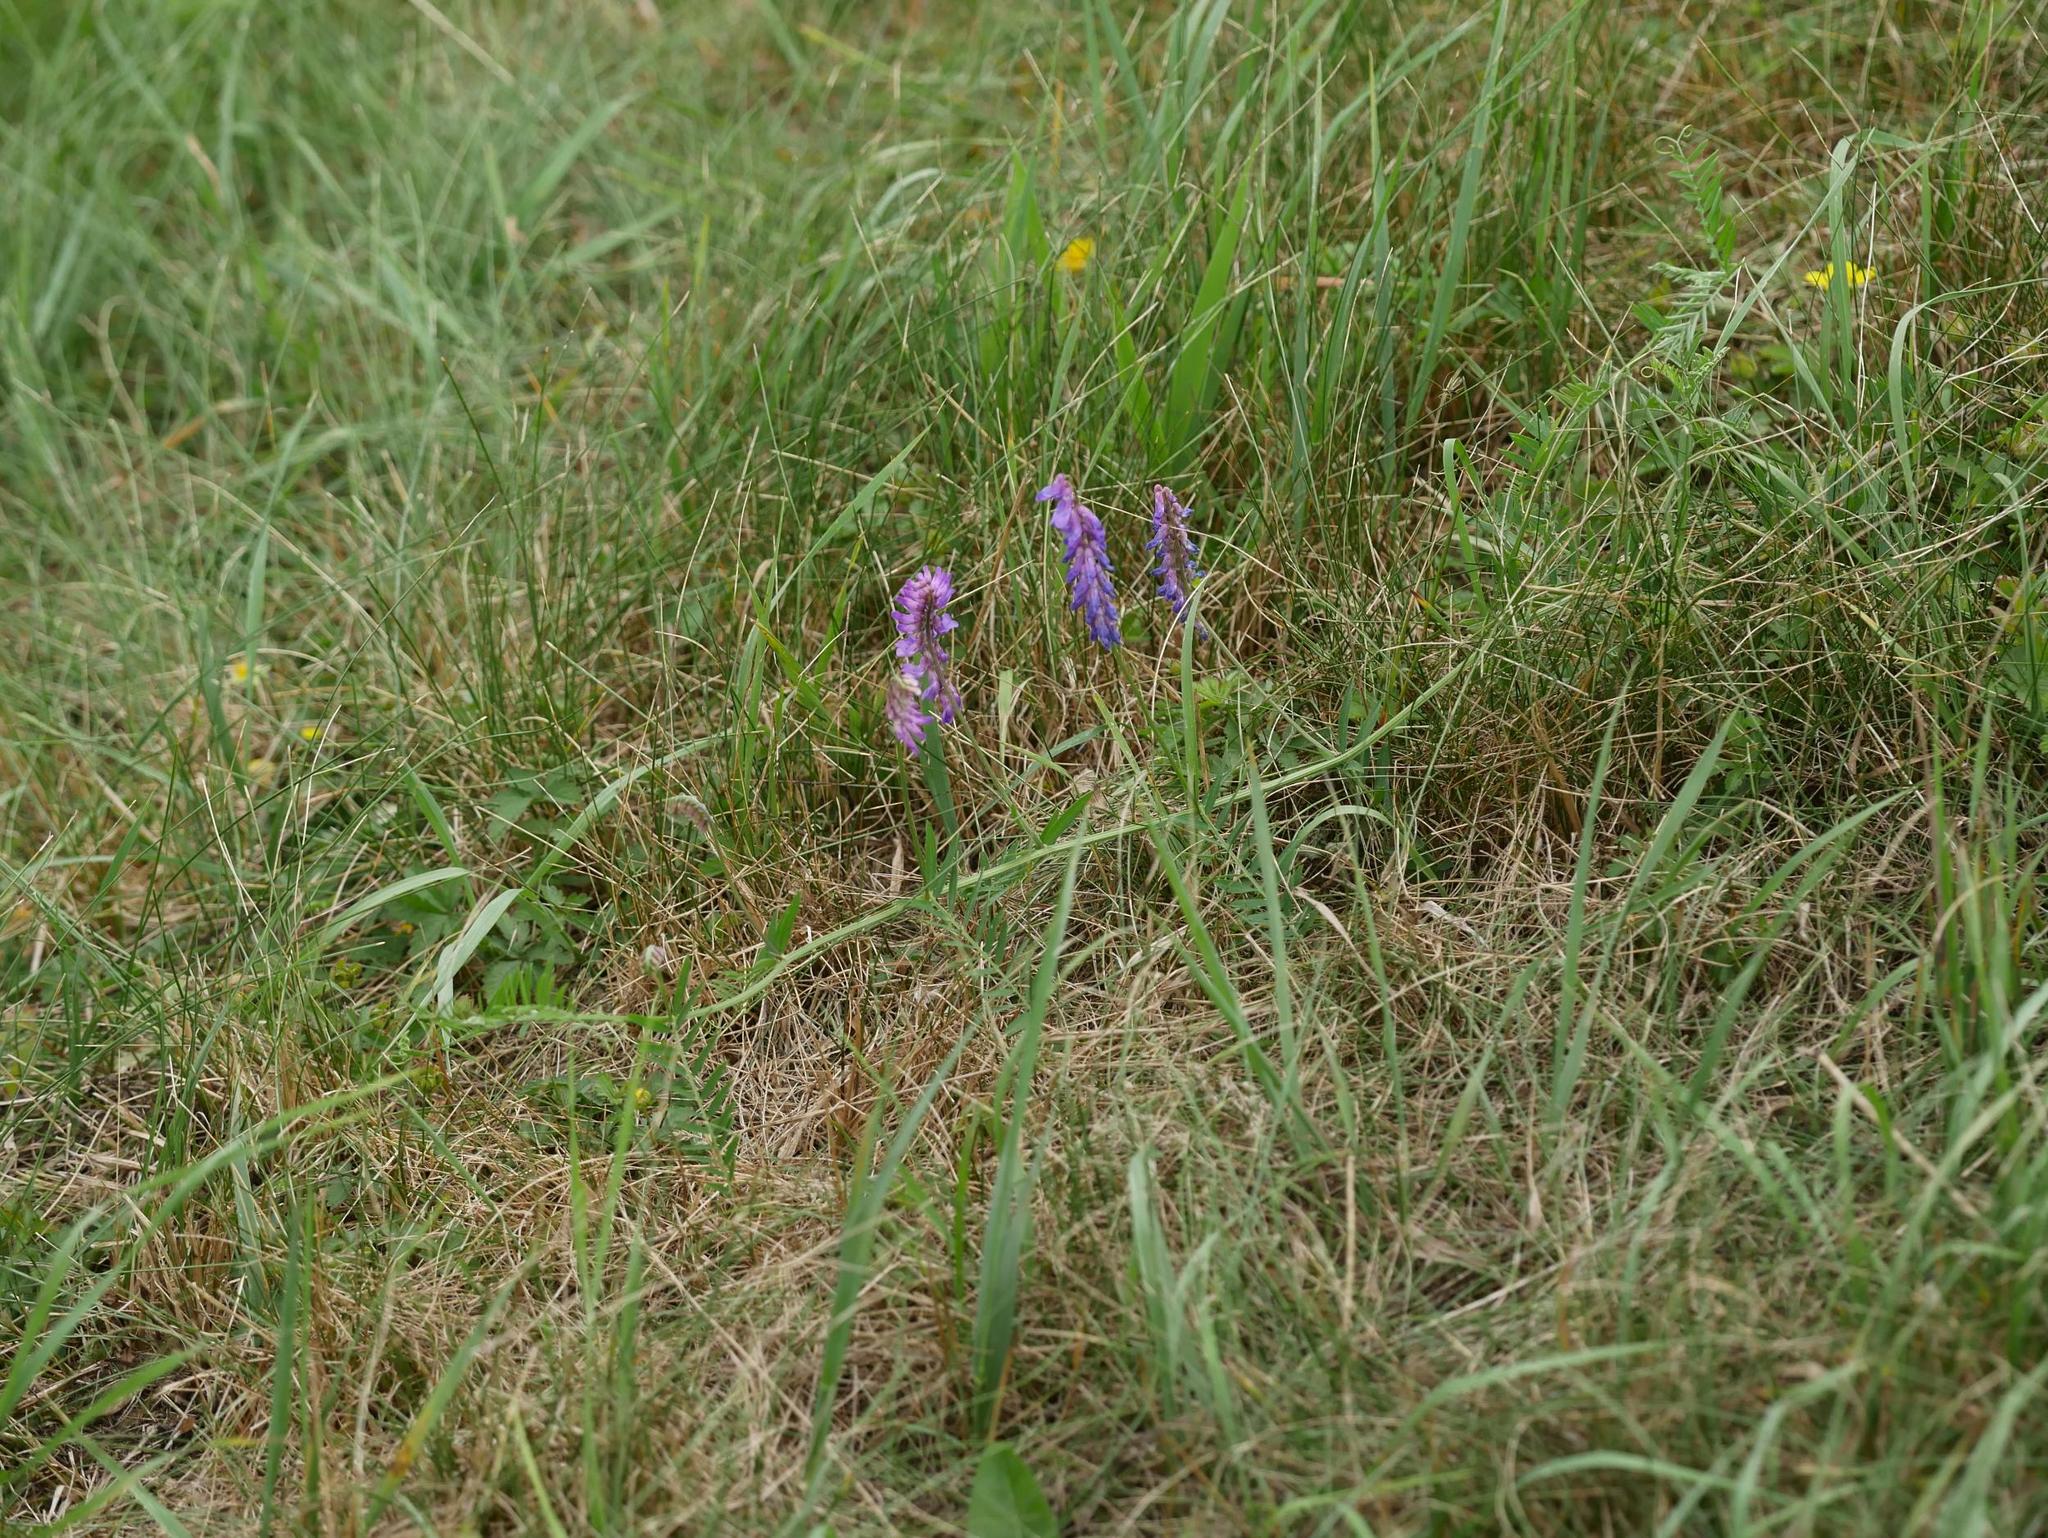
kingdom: Plantae
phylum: Tracheophyta
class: Magnoliopsida
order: Fabales
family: Fabaceae
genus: Vicia
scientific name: Vicia cracca
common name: Bird vetch
